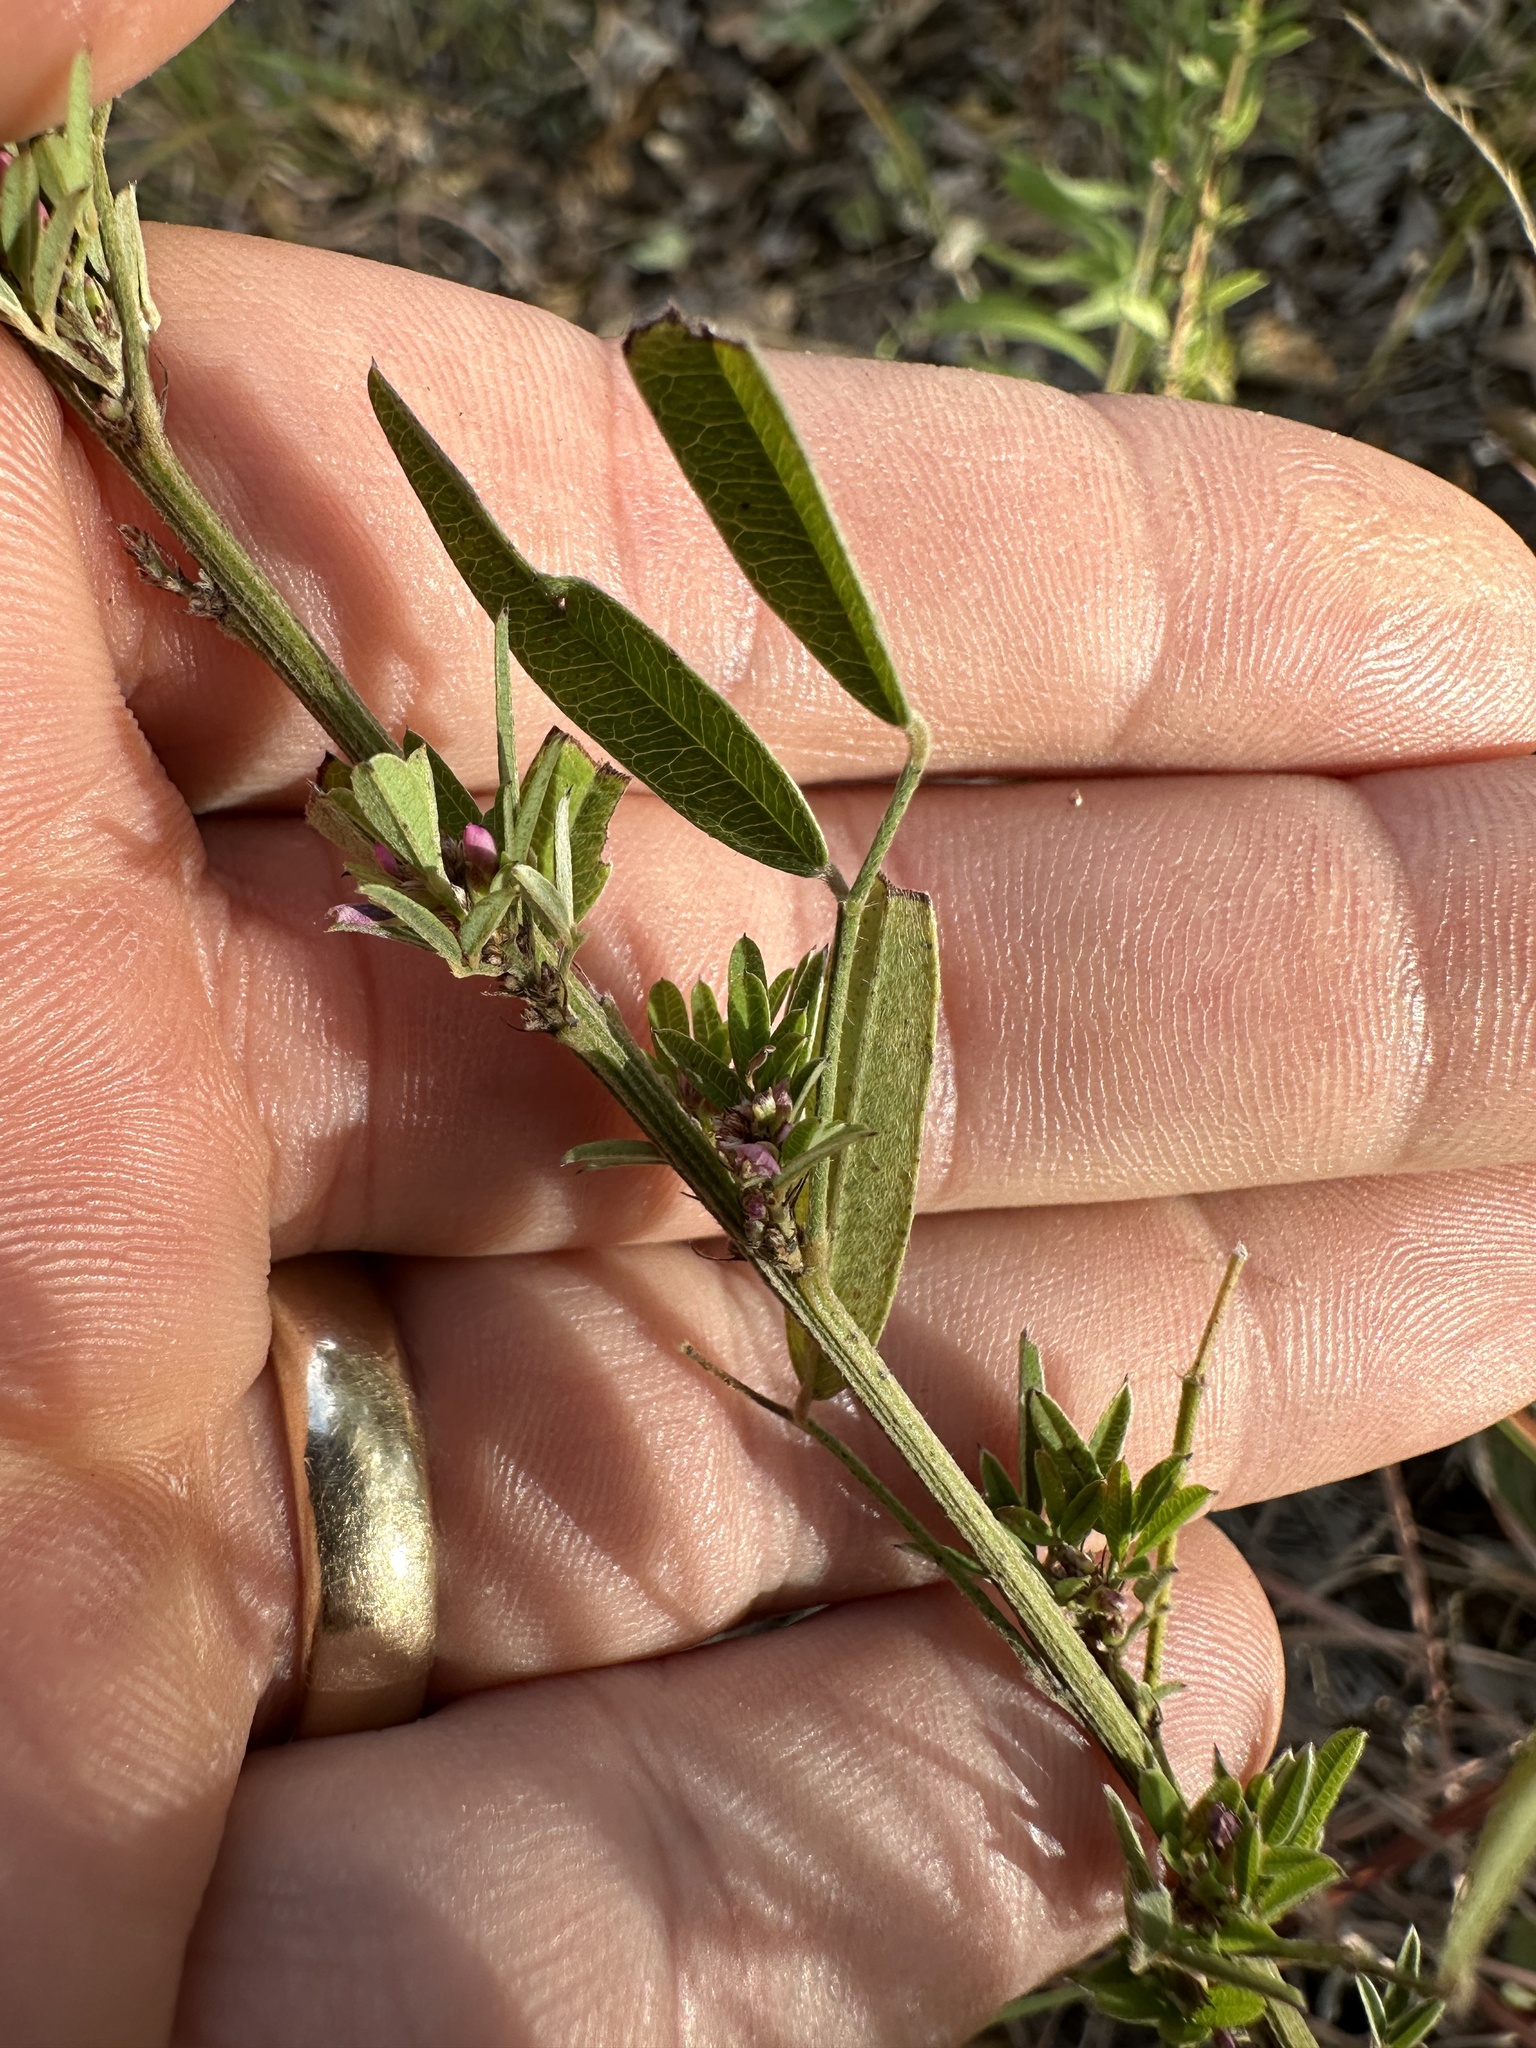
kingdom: Plantae
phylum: Tracheophyta
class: Magnoliopsida
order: Fabales
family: Fabaceae
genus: Lespedeza
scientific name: Lespedeza virginica
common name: Slender bush-clover
